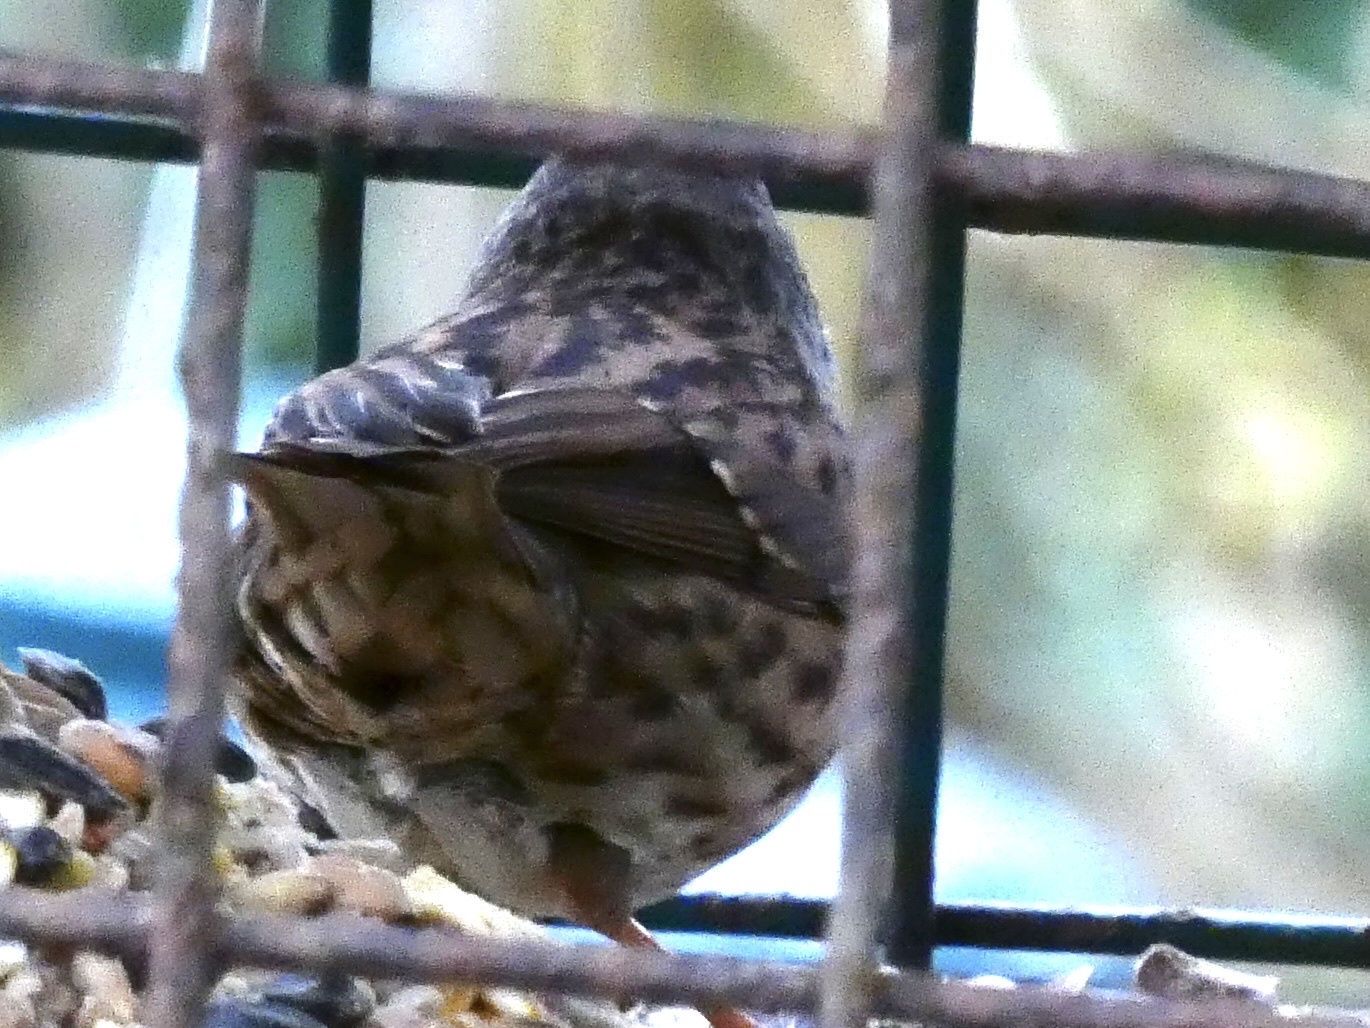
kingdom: Animalia
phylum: Chordata
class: Aves
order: Passeriformes
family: Prunellidae
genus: Prunella
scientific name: Prunella modularis
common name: Dunnock
